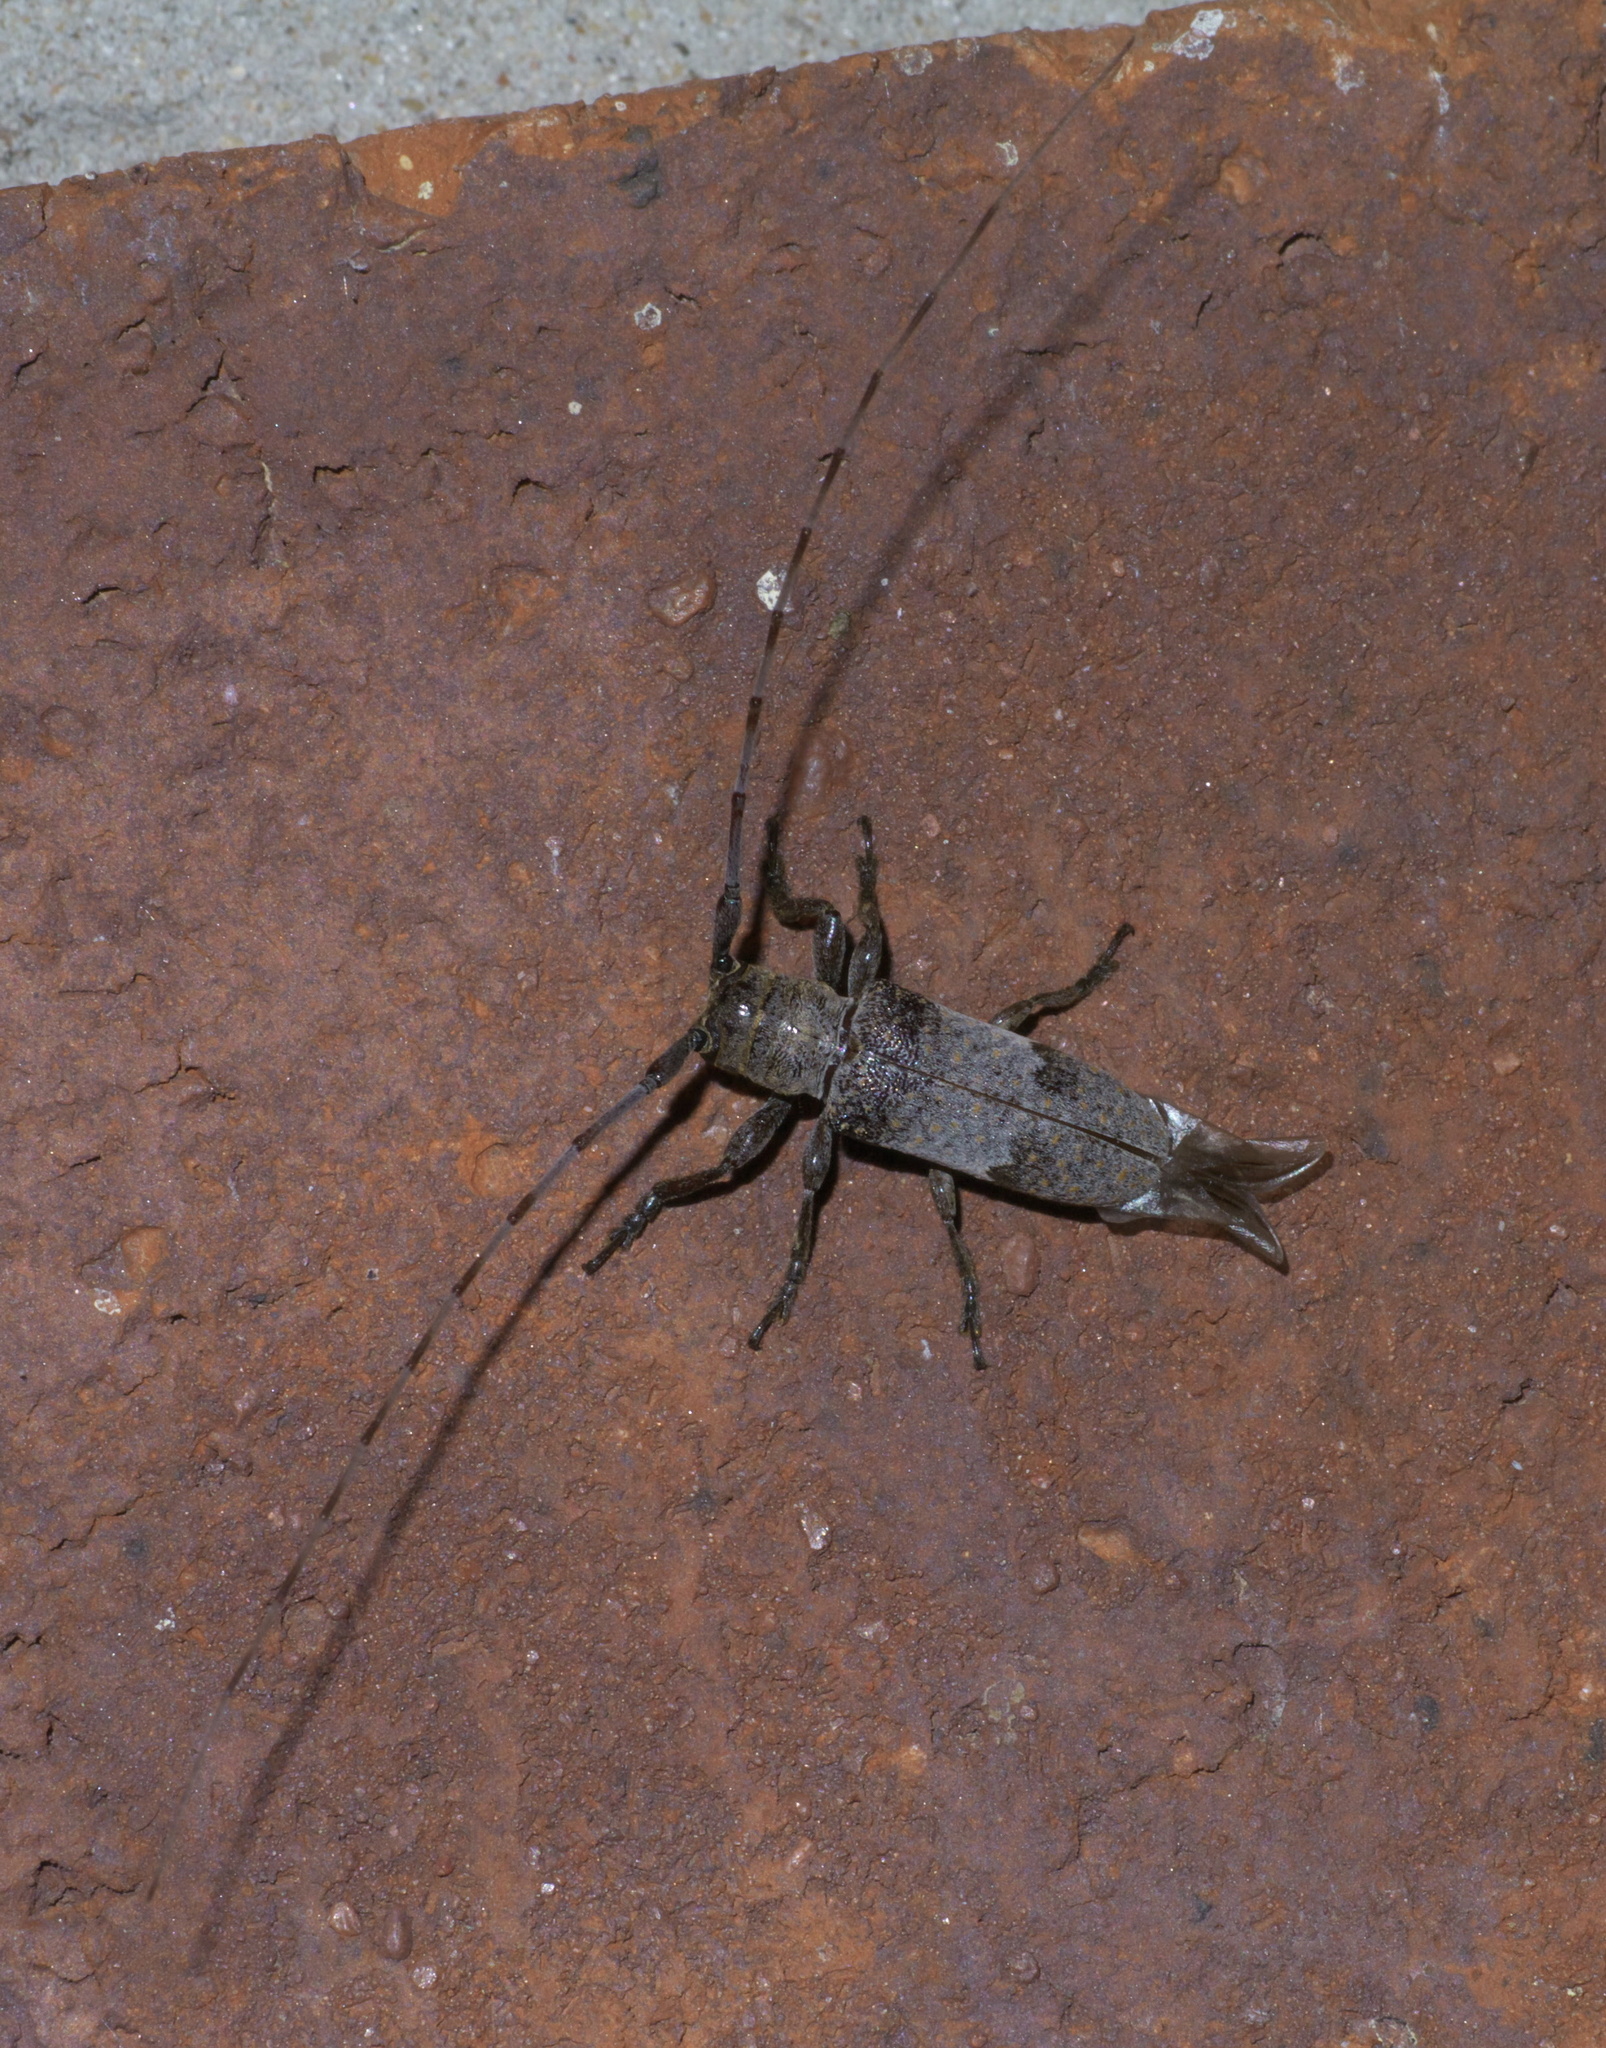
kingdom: Animalia
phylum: Arthropoda
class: Insecta
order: Coleoptera
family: Cerambycidae
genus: Oncideres
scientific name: Oncideres cingulata
